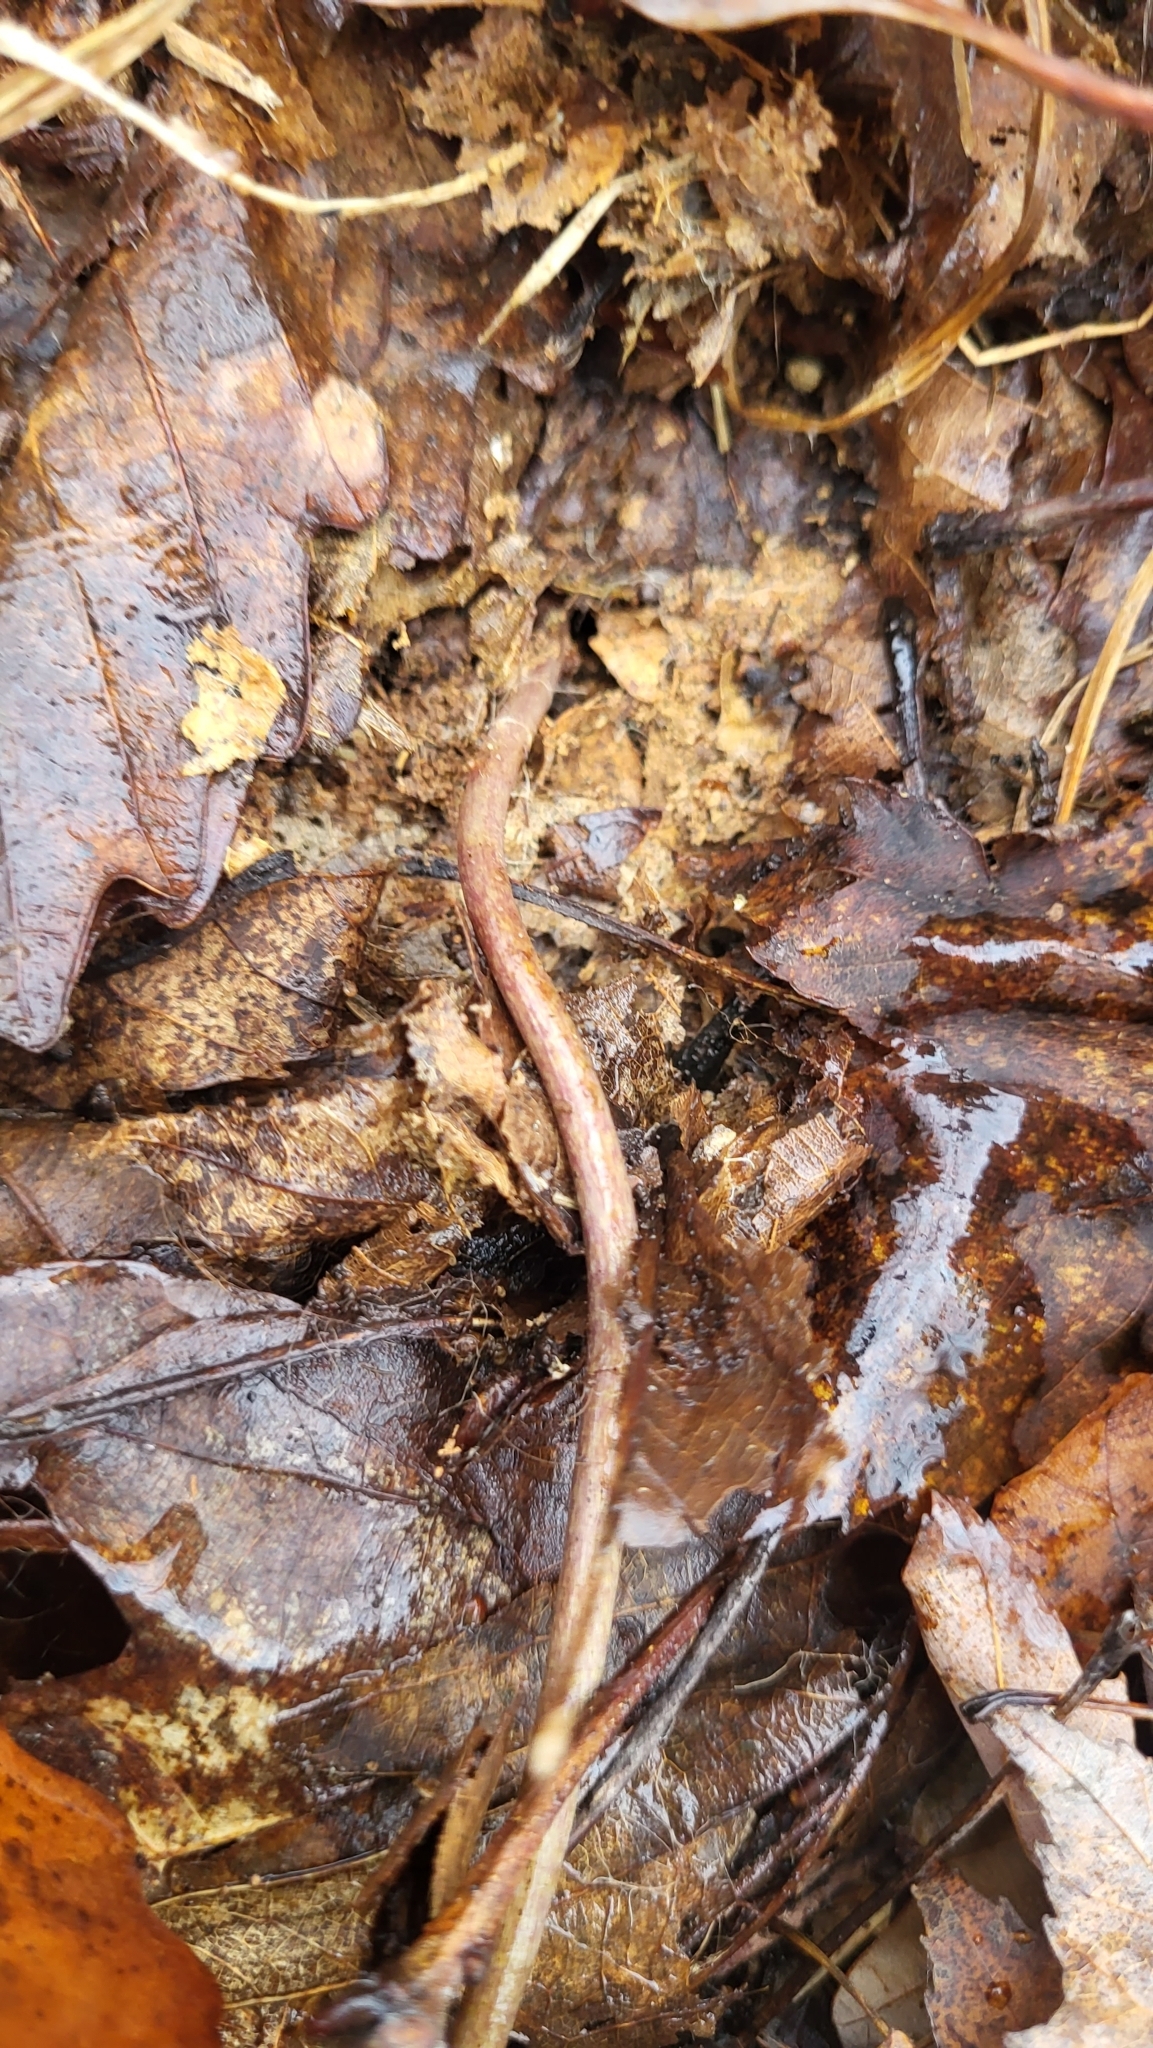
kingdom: Plantae
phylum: Tracheophyta
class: Magnoliopsida
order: Piperales
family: Aristolochiaceae
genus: Hexastylis
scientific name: Hexastylis arifolia
